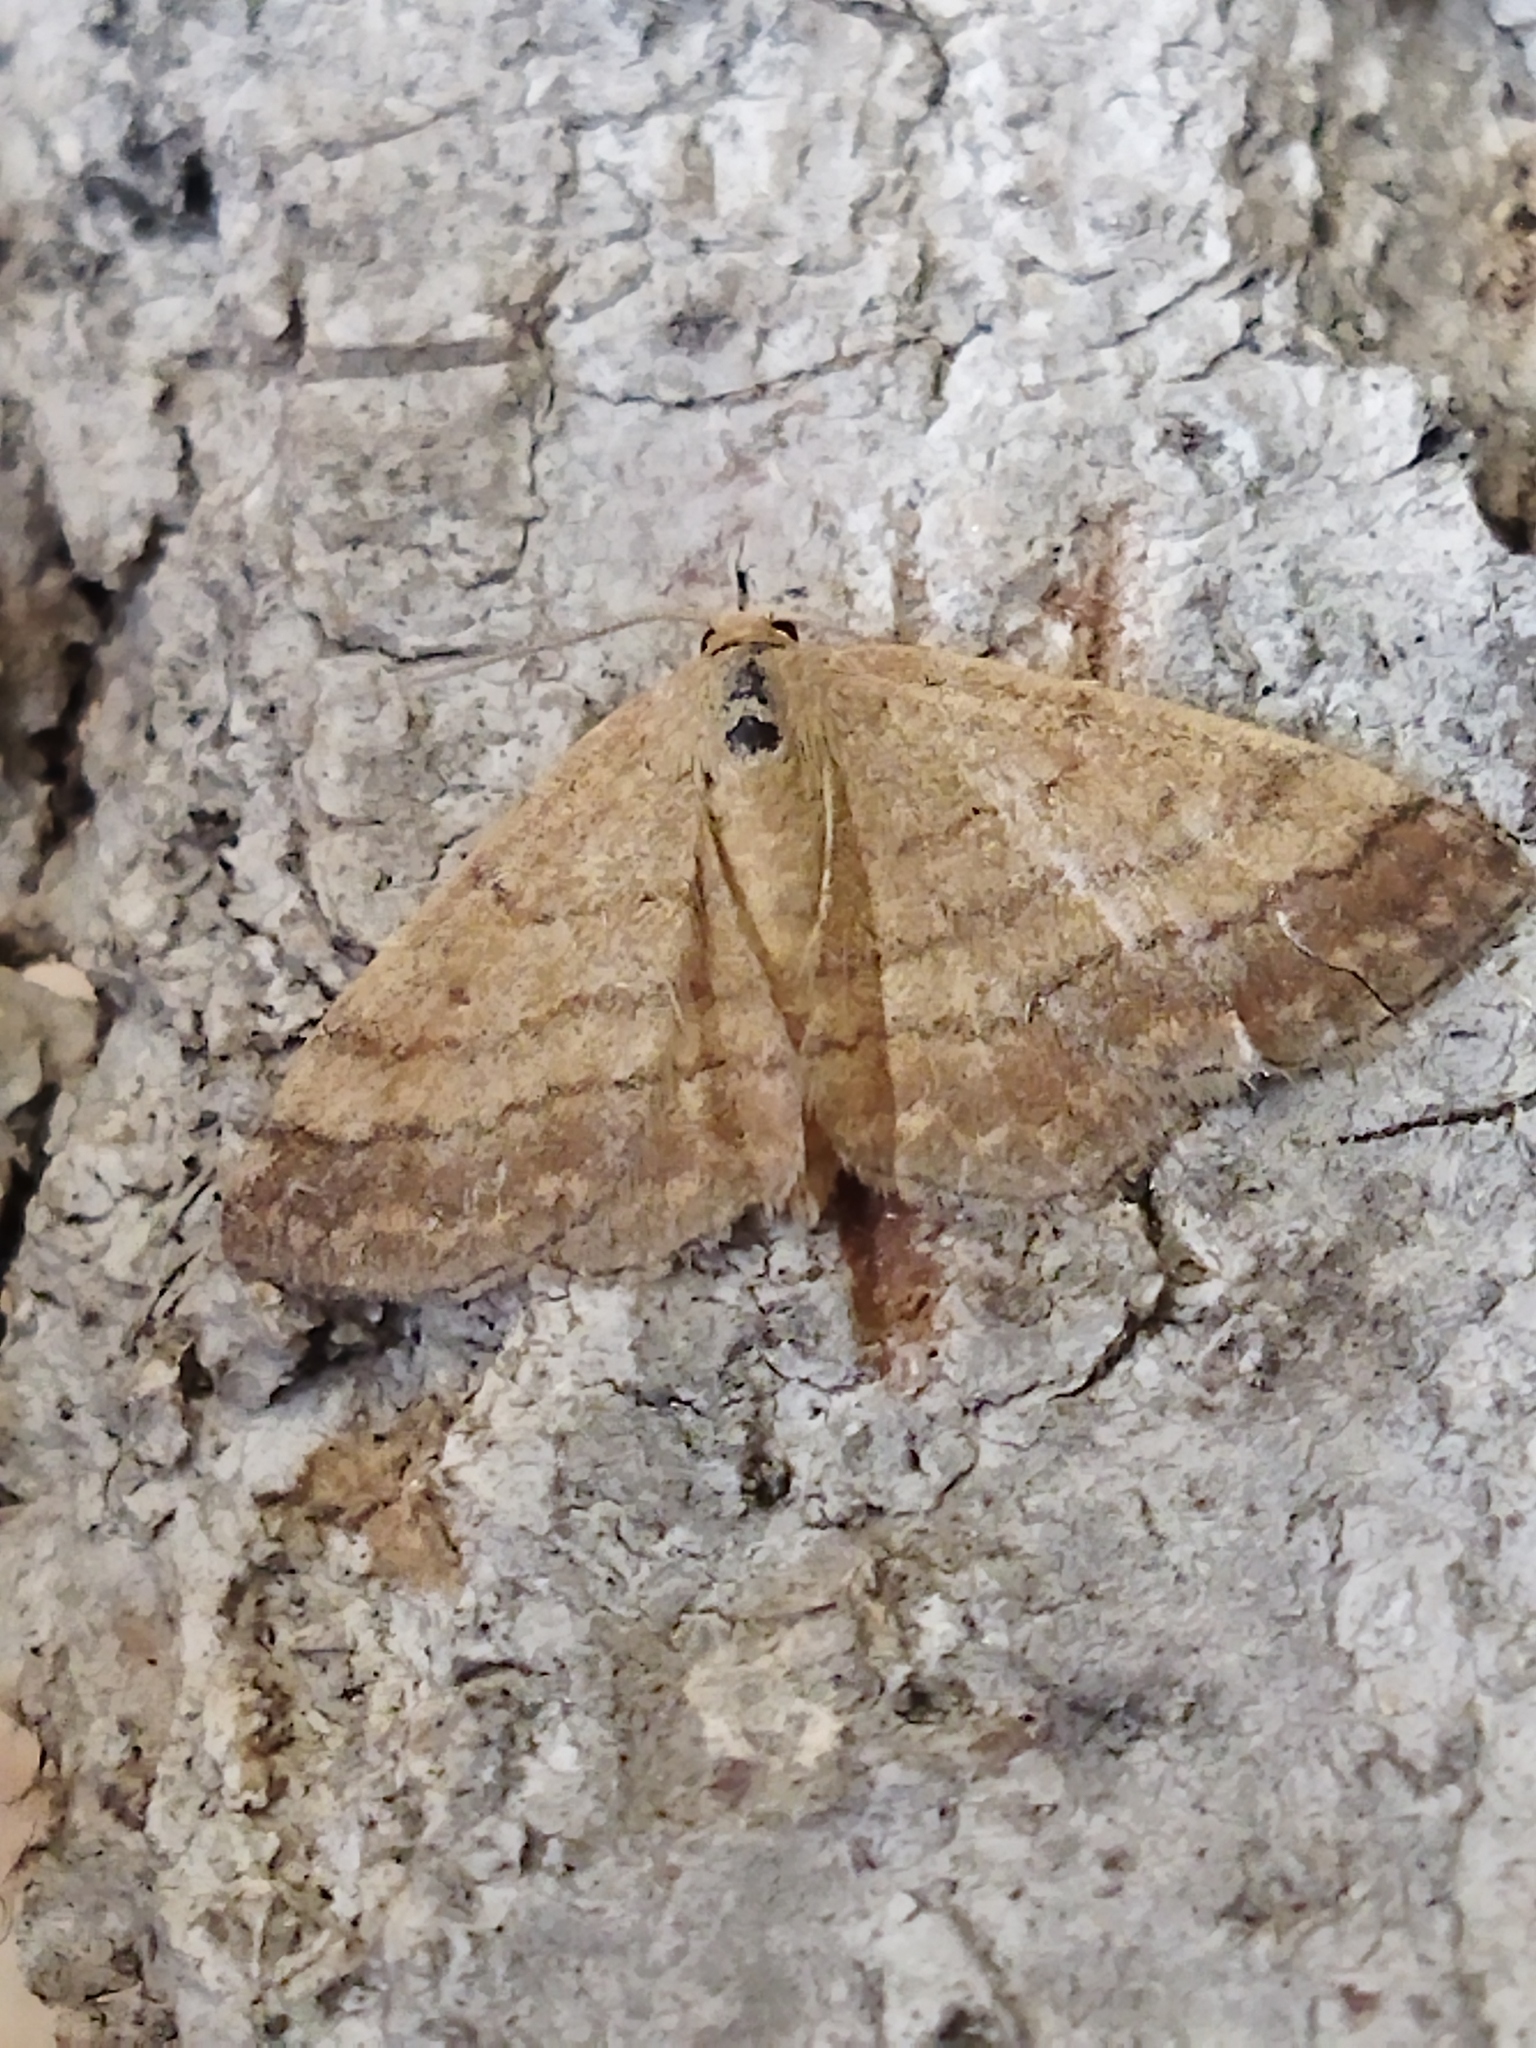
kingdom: Animalia
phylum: Arthropoda
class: Insecta
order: Lepidoptera
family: Geometridae
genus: Scopula
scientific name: Scopula rubiginata
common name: Tawny wave
